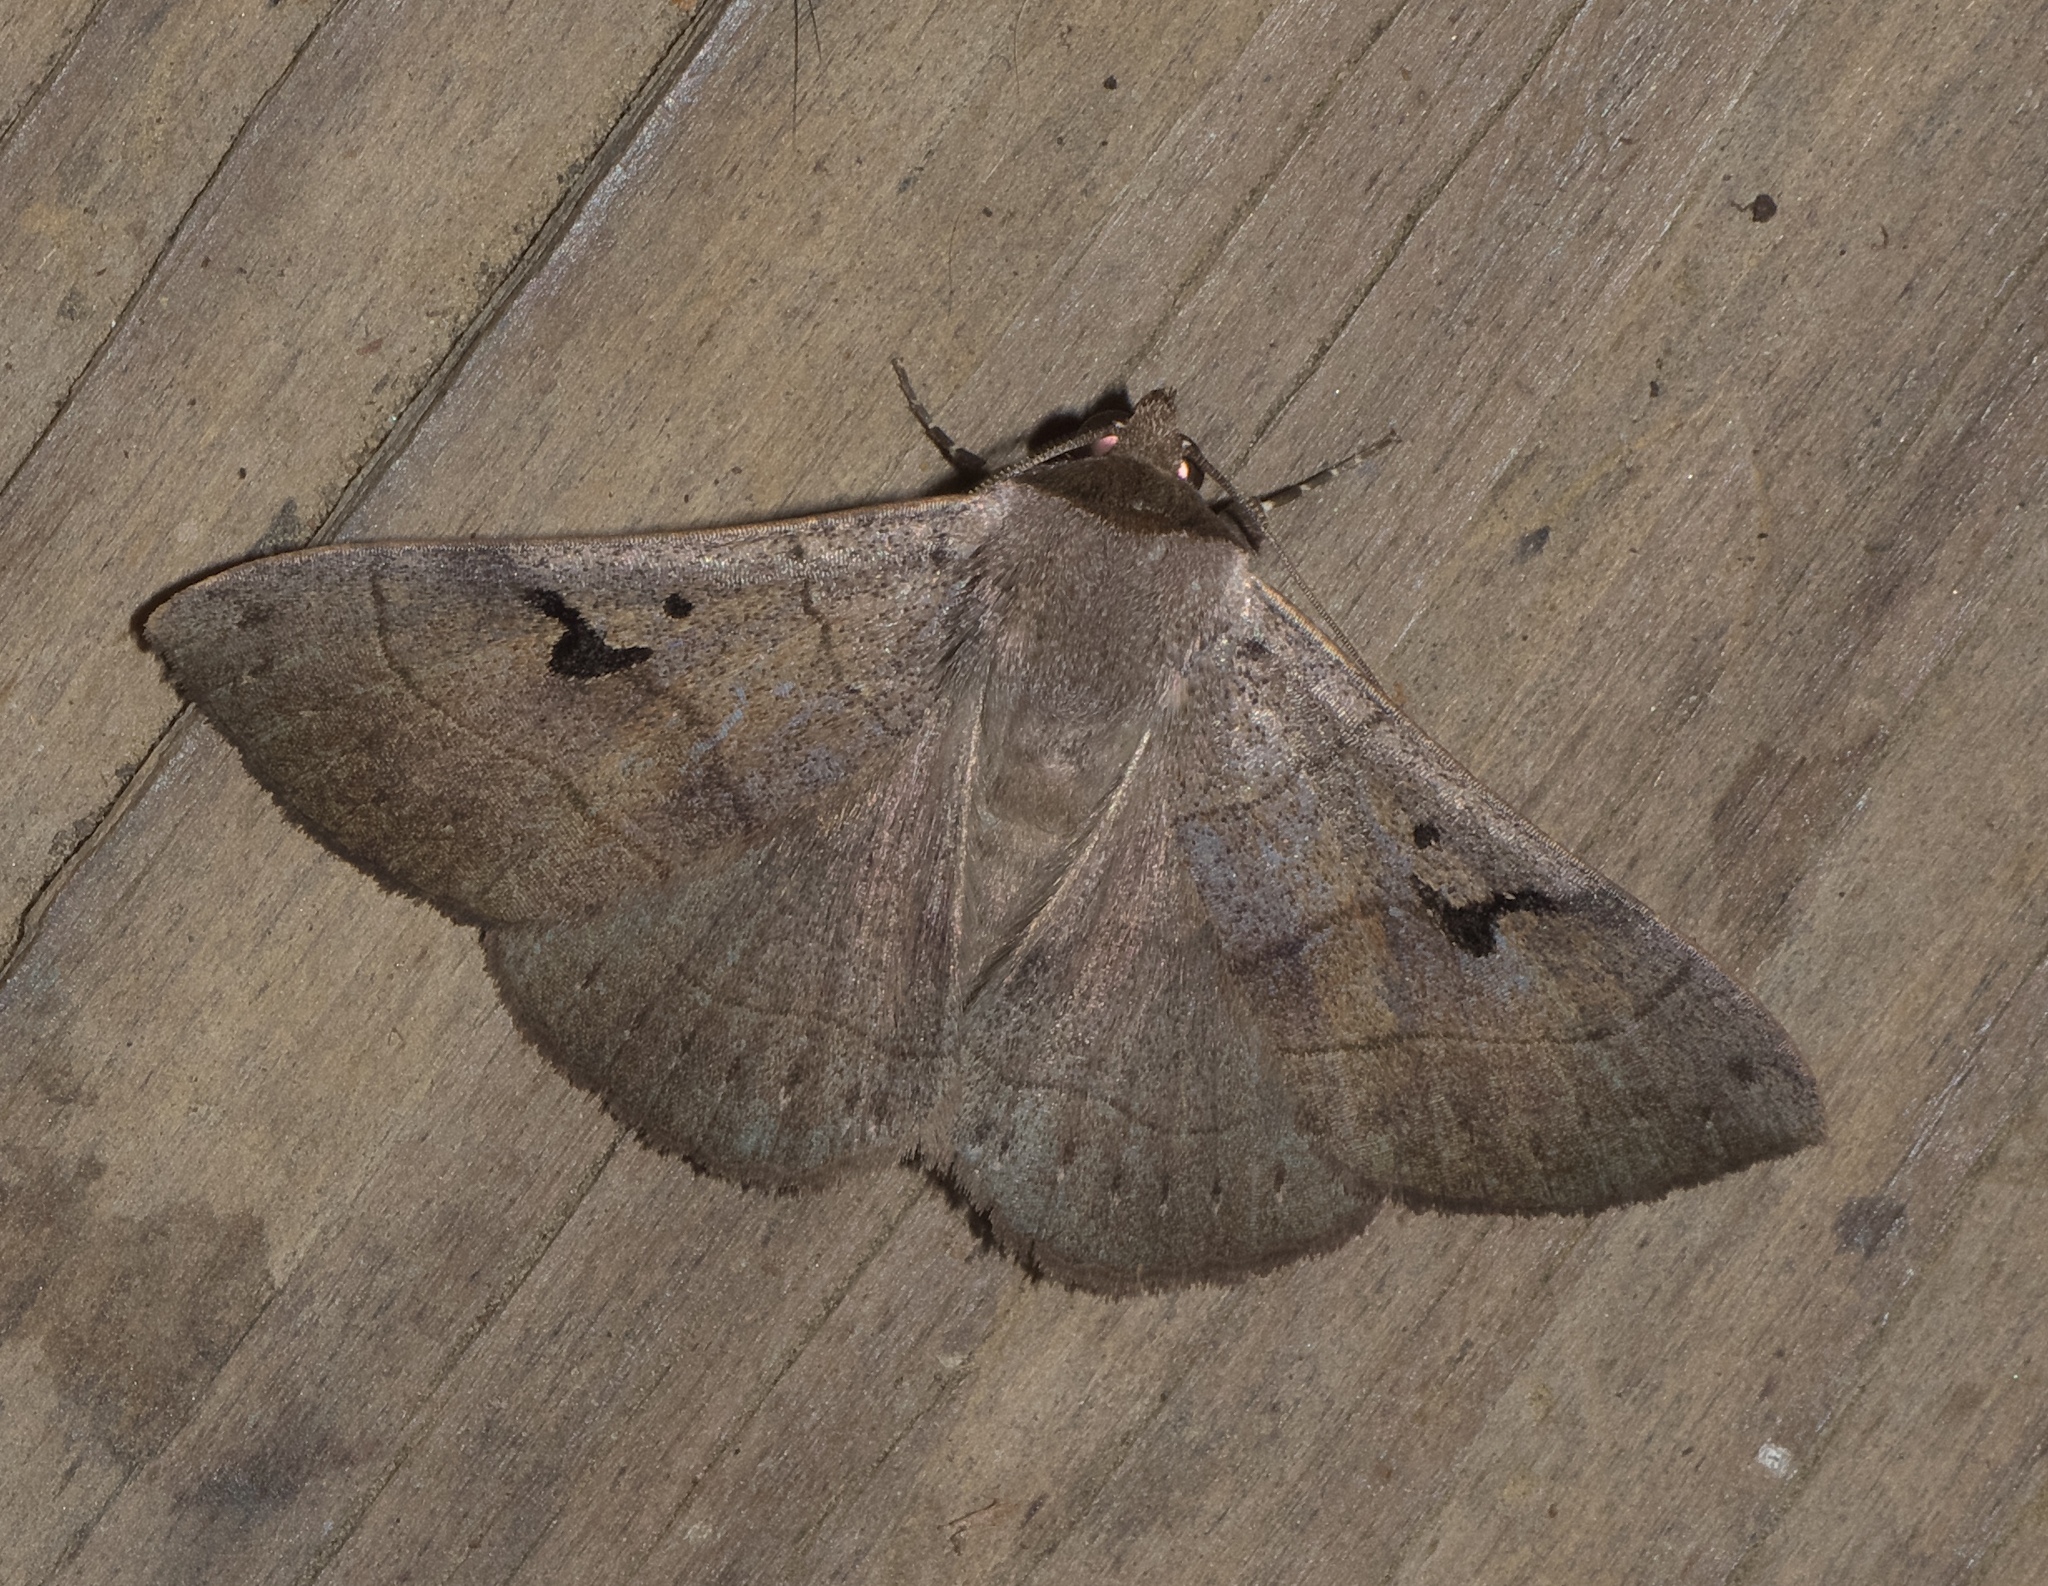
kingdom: Animalia
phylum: Arthropoda
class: Insecta
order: Lepidoptera
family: Erebidae
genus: Panopoda
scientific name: Panopoda carneicosta
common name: Brown panopoda moth
